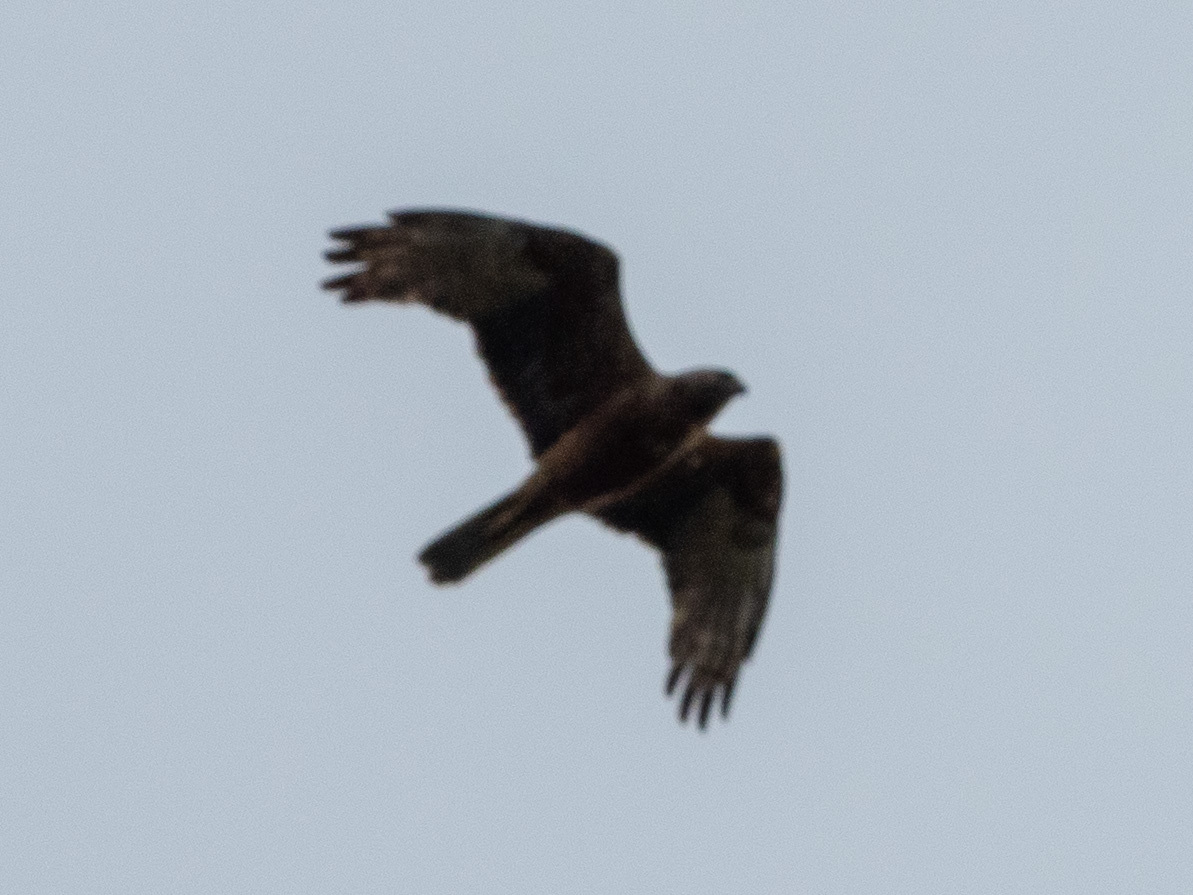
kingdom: Animalia
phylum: Chordata
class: Aves
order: Accipitriformes
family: Accipitridae
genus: Circus
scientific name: Circus approximans
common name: Swamp harrier
